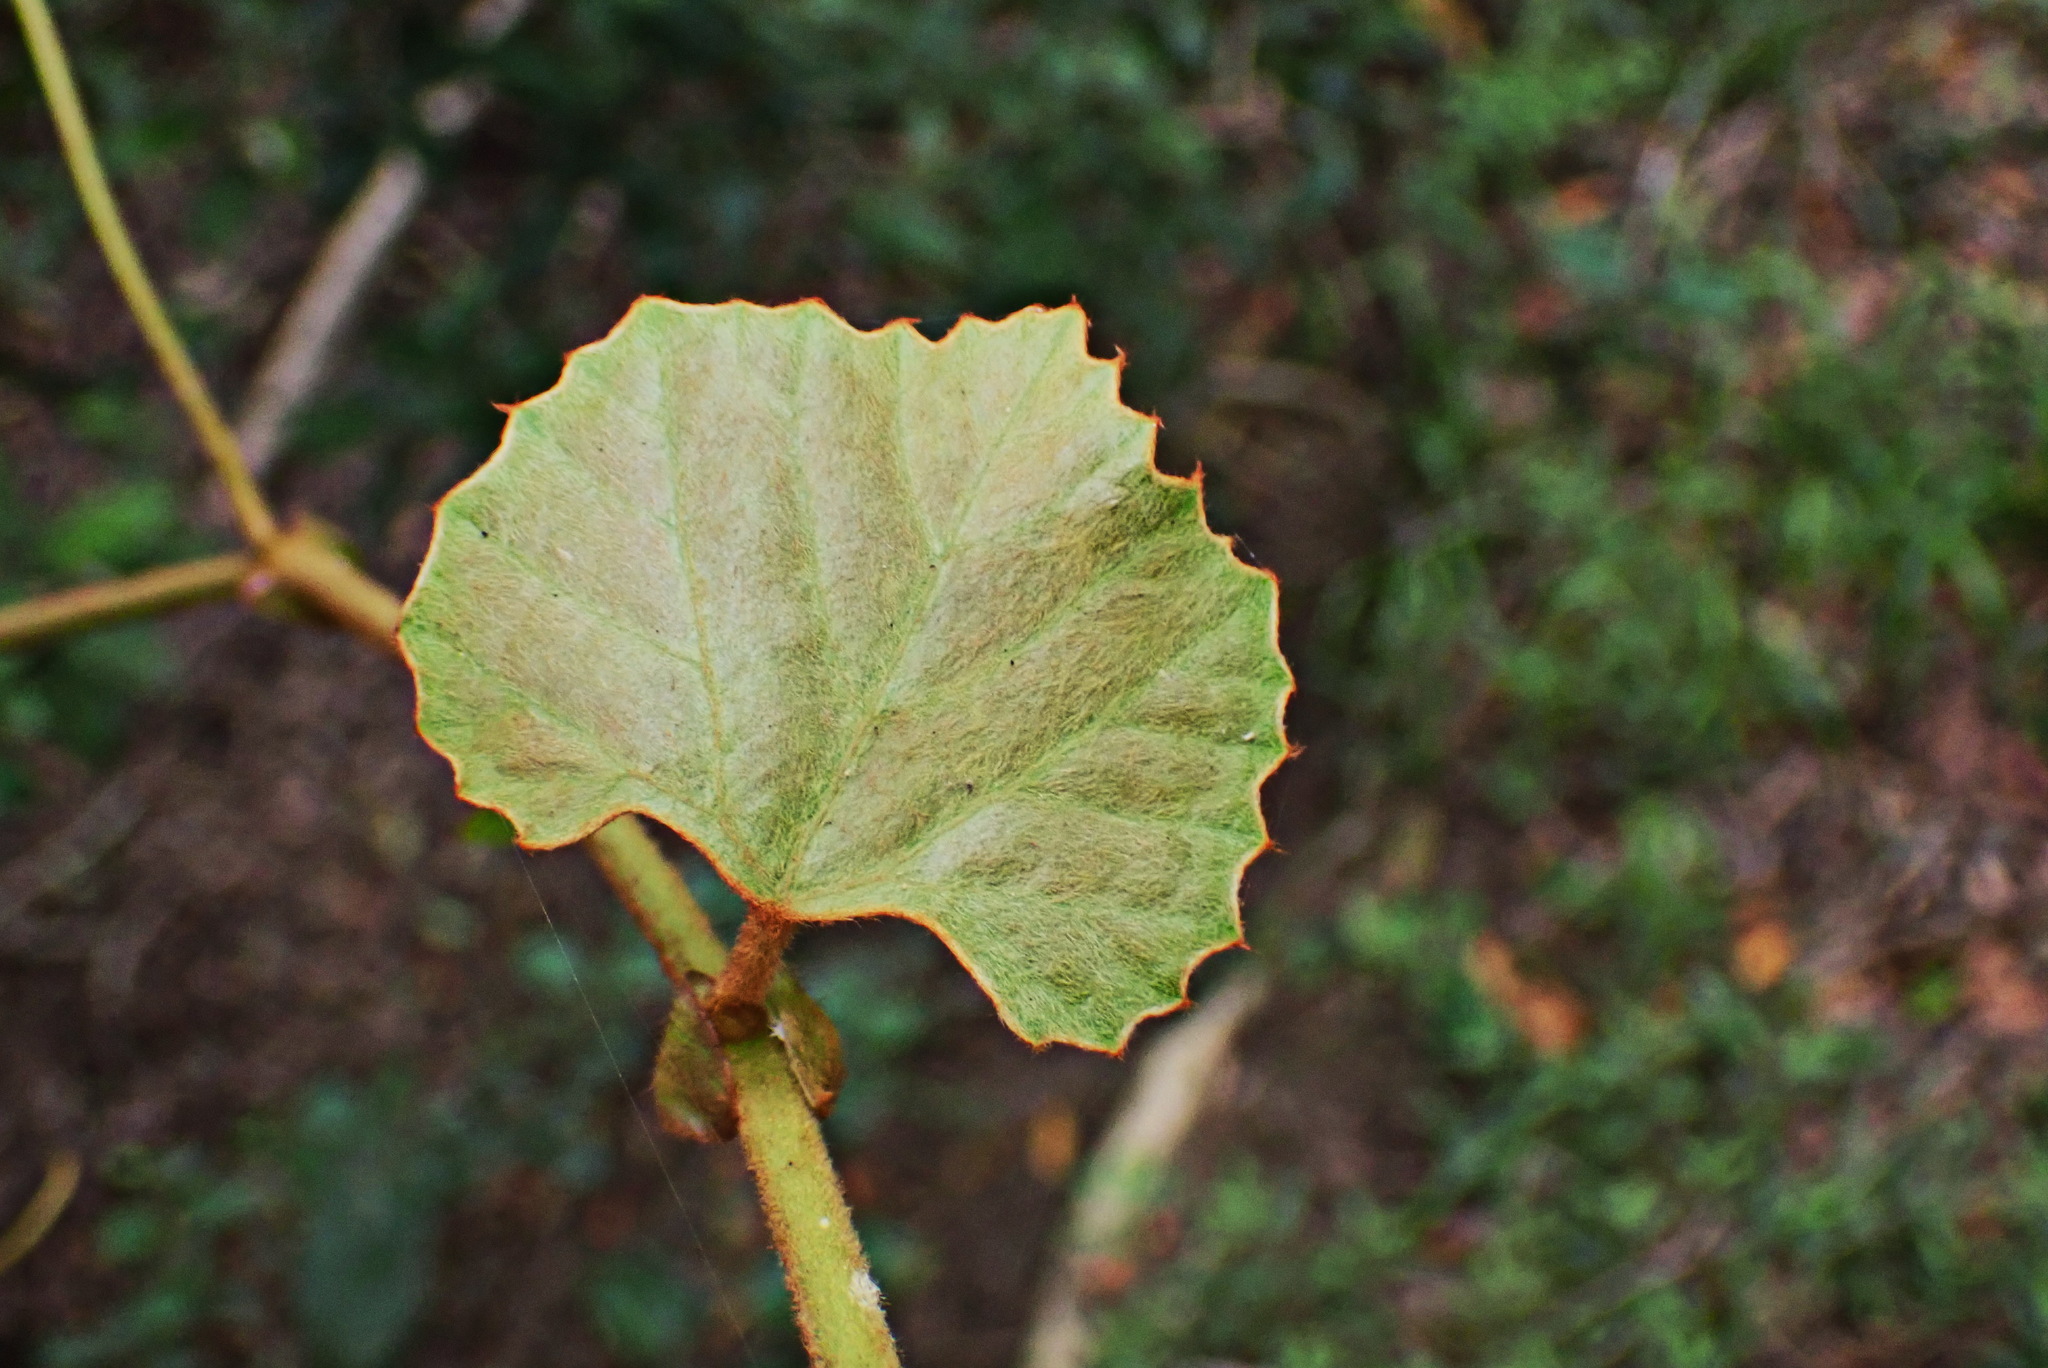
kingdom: Plantae
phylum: Tracheophyta
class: Magnoliopsida
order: Vitales
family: Vitaceae
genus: Rhoicissus
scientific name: Rhoicissus tomentosa
